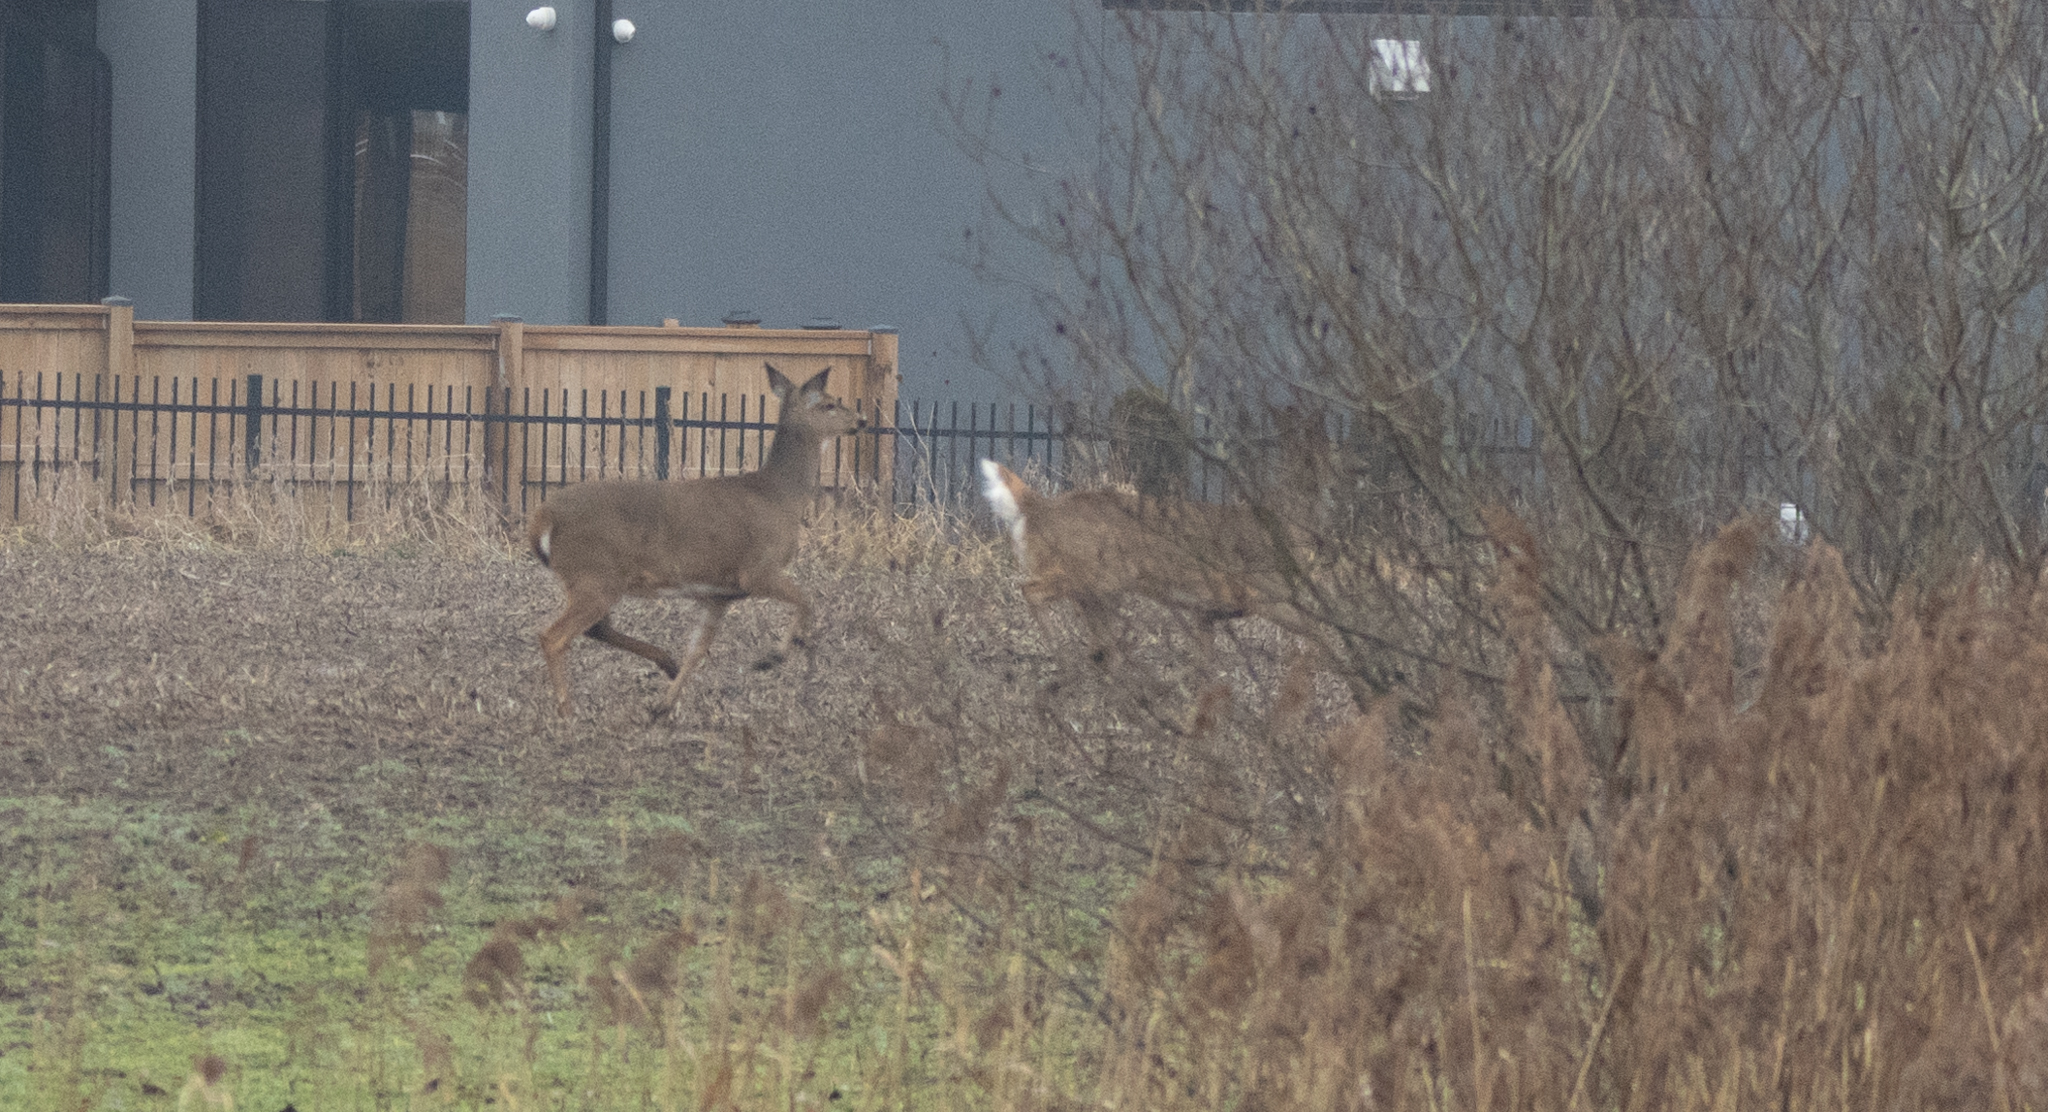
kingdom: Animalia
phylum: Chordata
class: Mammalia
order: Artiodactyla
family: Cervidae
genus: Odocoileus
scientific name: Odocoileus virginianus
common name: White-tailed deer
